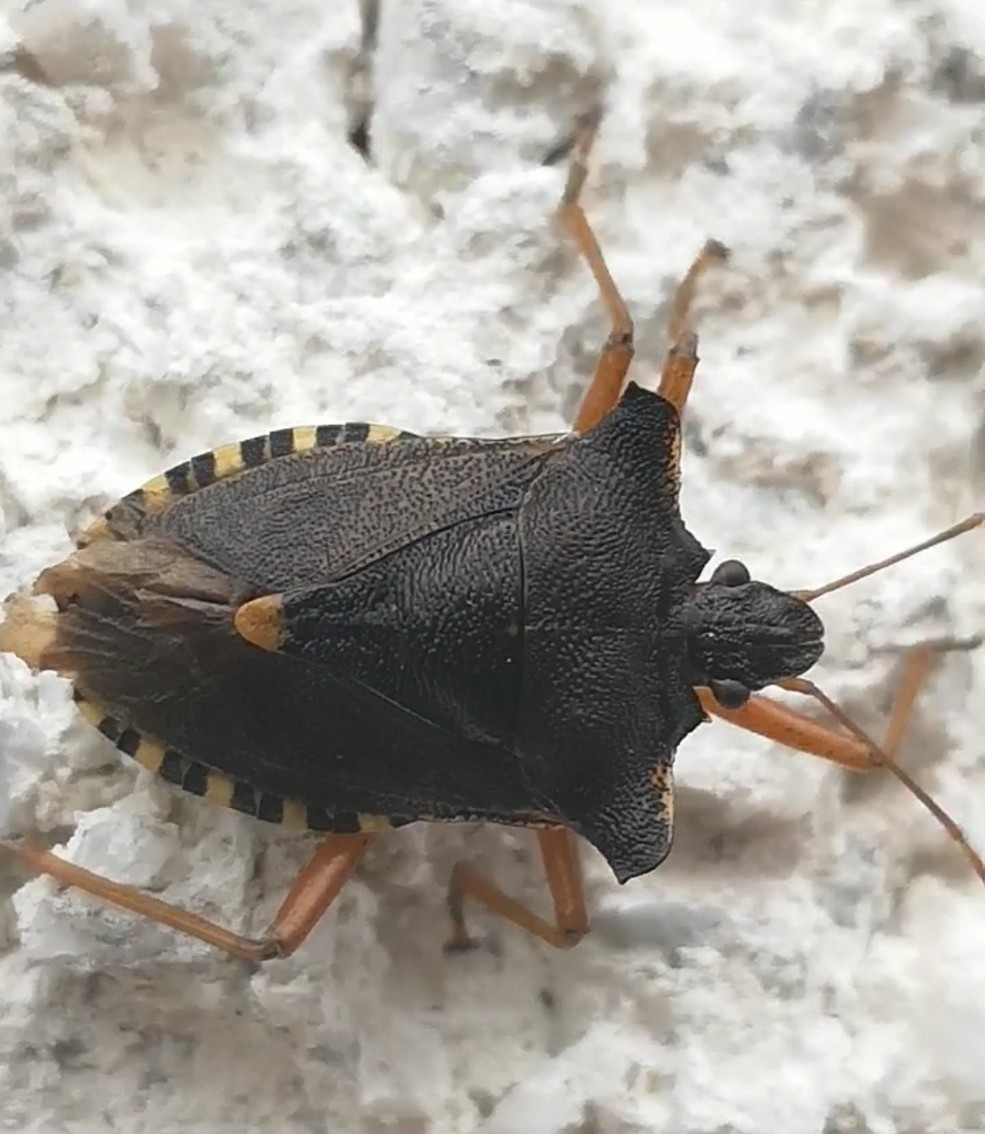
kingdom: Animalia
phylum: Arthropoda
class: Insecta
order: Hemiptera
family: Pentatomidae
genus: Pentatoma
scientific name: Pentatoma rufipes
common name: Forest bug
